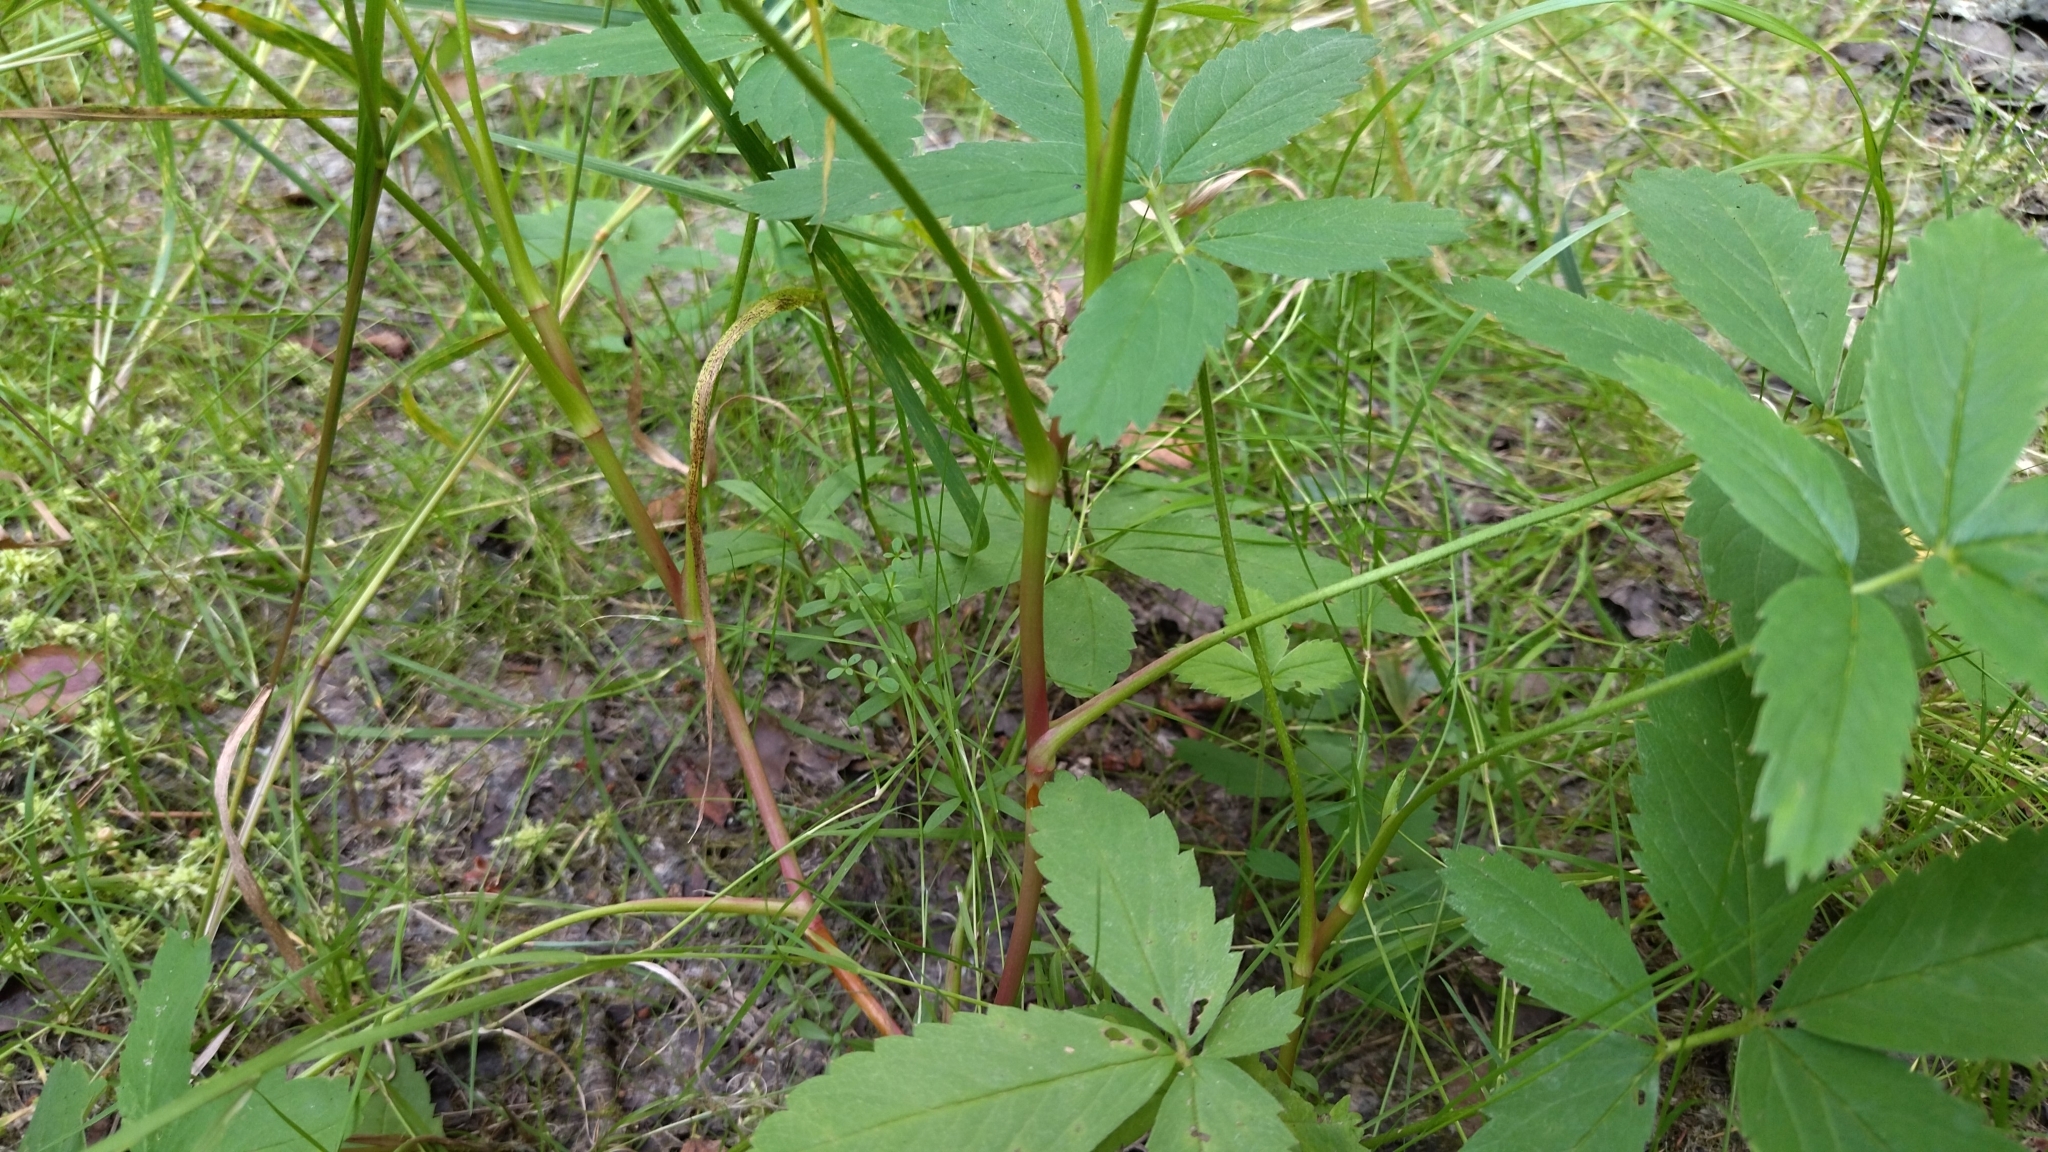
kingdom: Plantae
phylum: Tracheophyta
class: Magnoliopsida
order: Rosales
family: Rosaceae
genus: Comarum
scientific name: Comarum palustre
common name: Marsh cinquefoil
